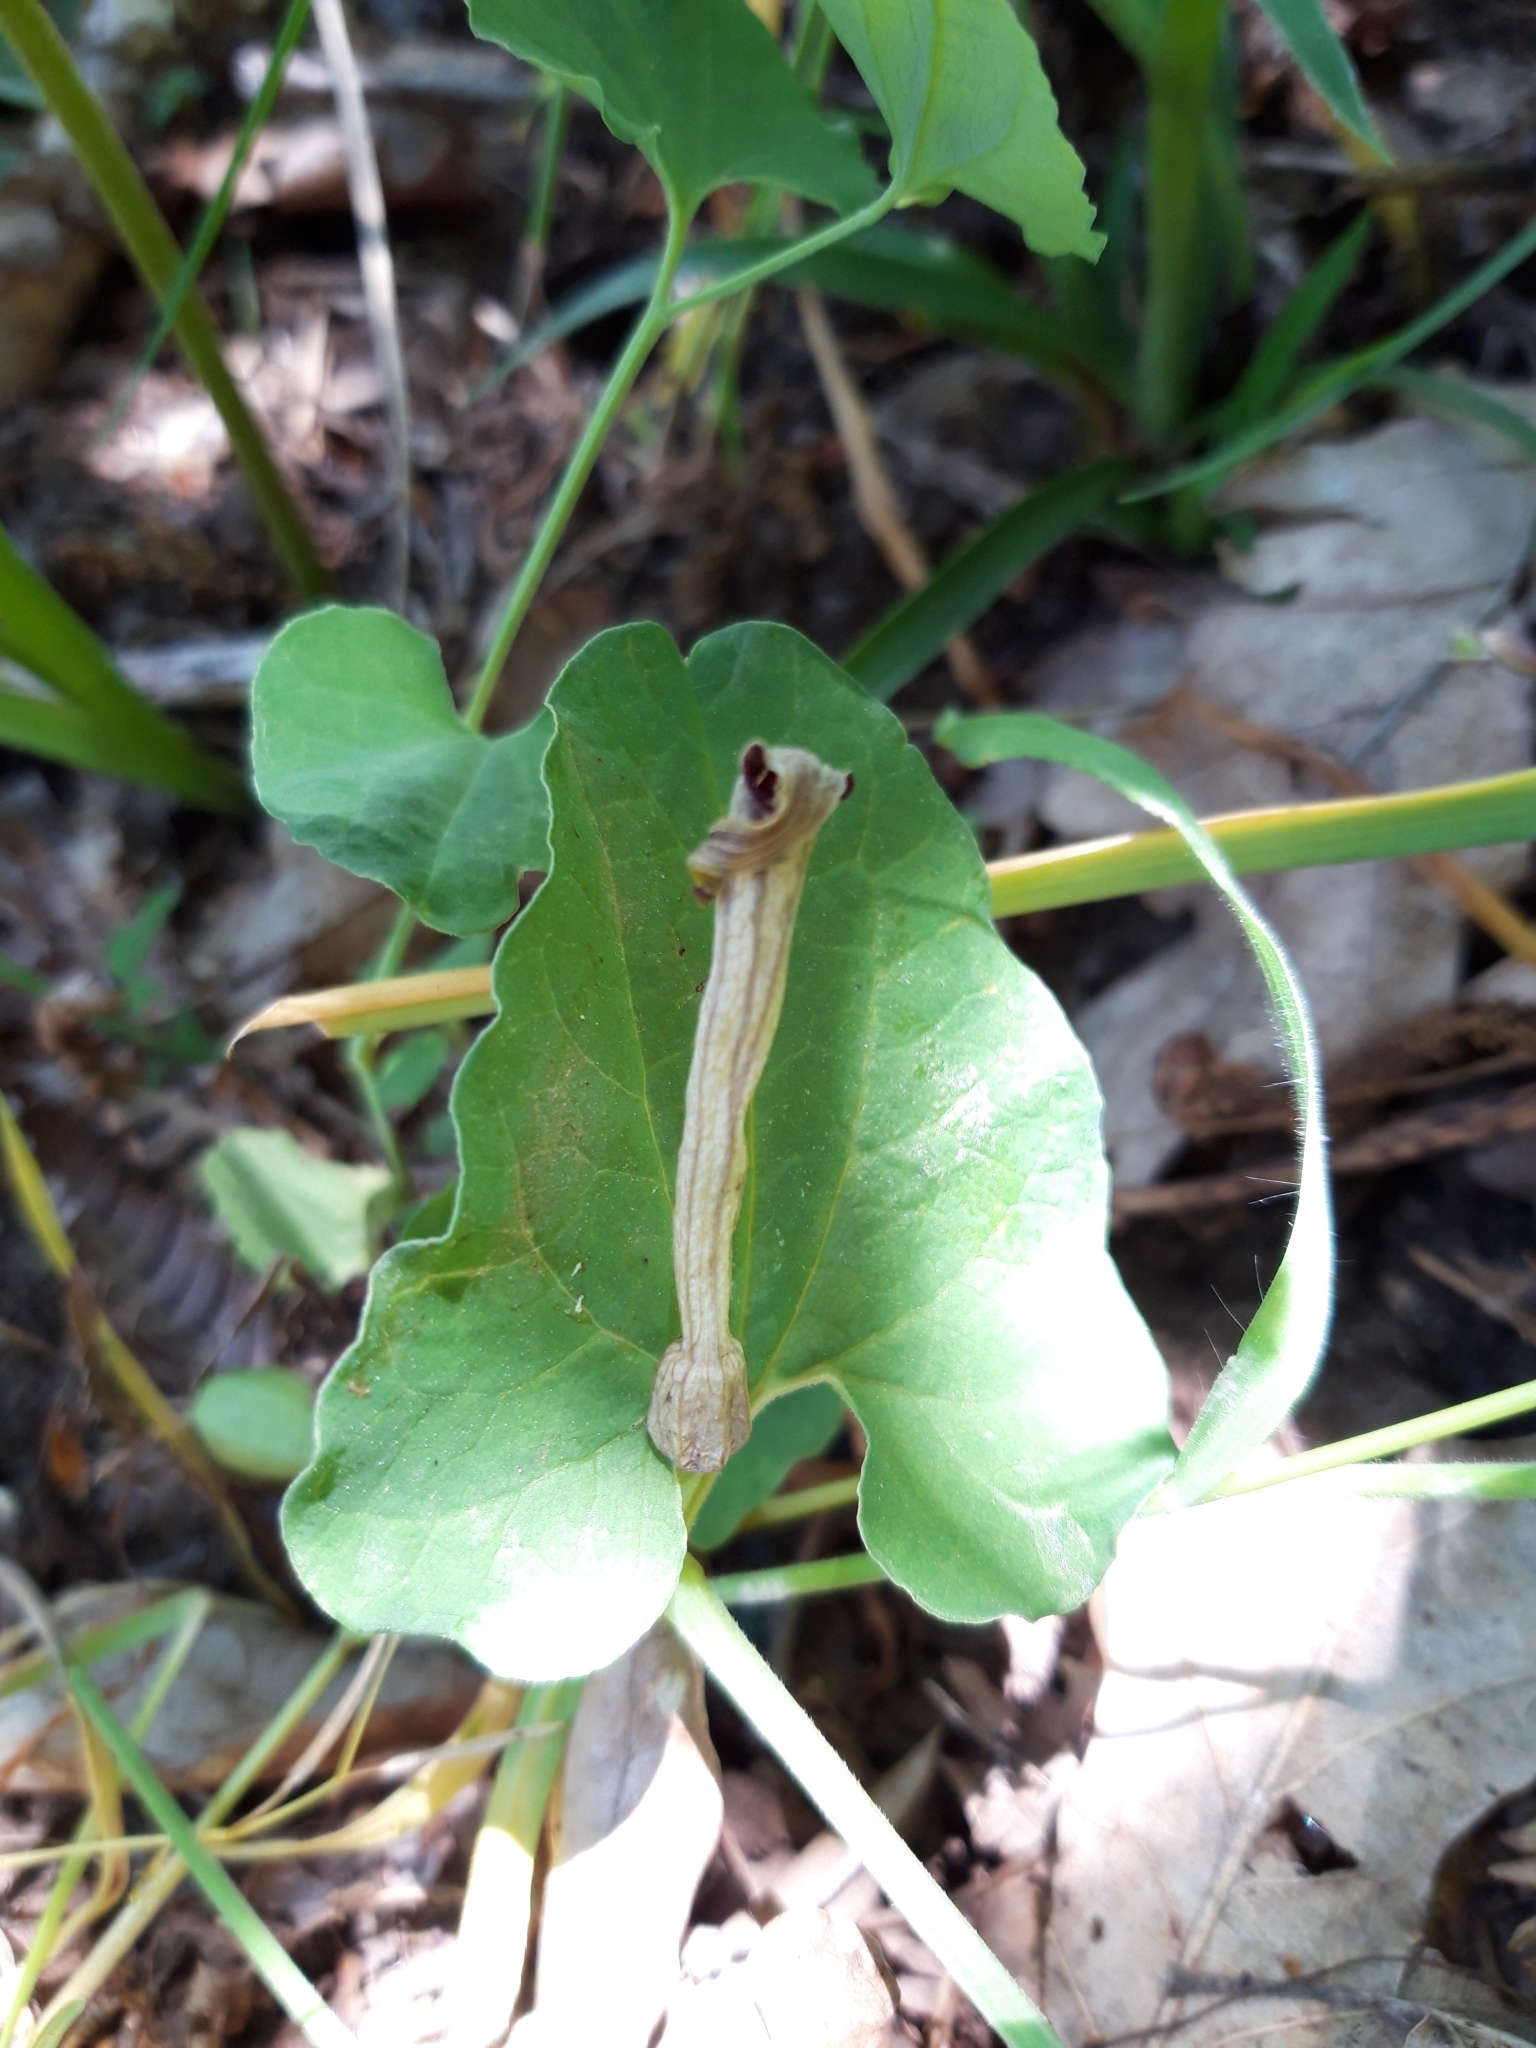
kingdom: Plantae
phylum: Tracheophyta
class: Magnoliopsida
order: Piperales
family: Aristolochiaceae
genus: Aristolochia
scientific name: Aristolochia paucinervis
